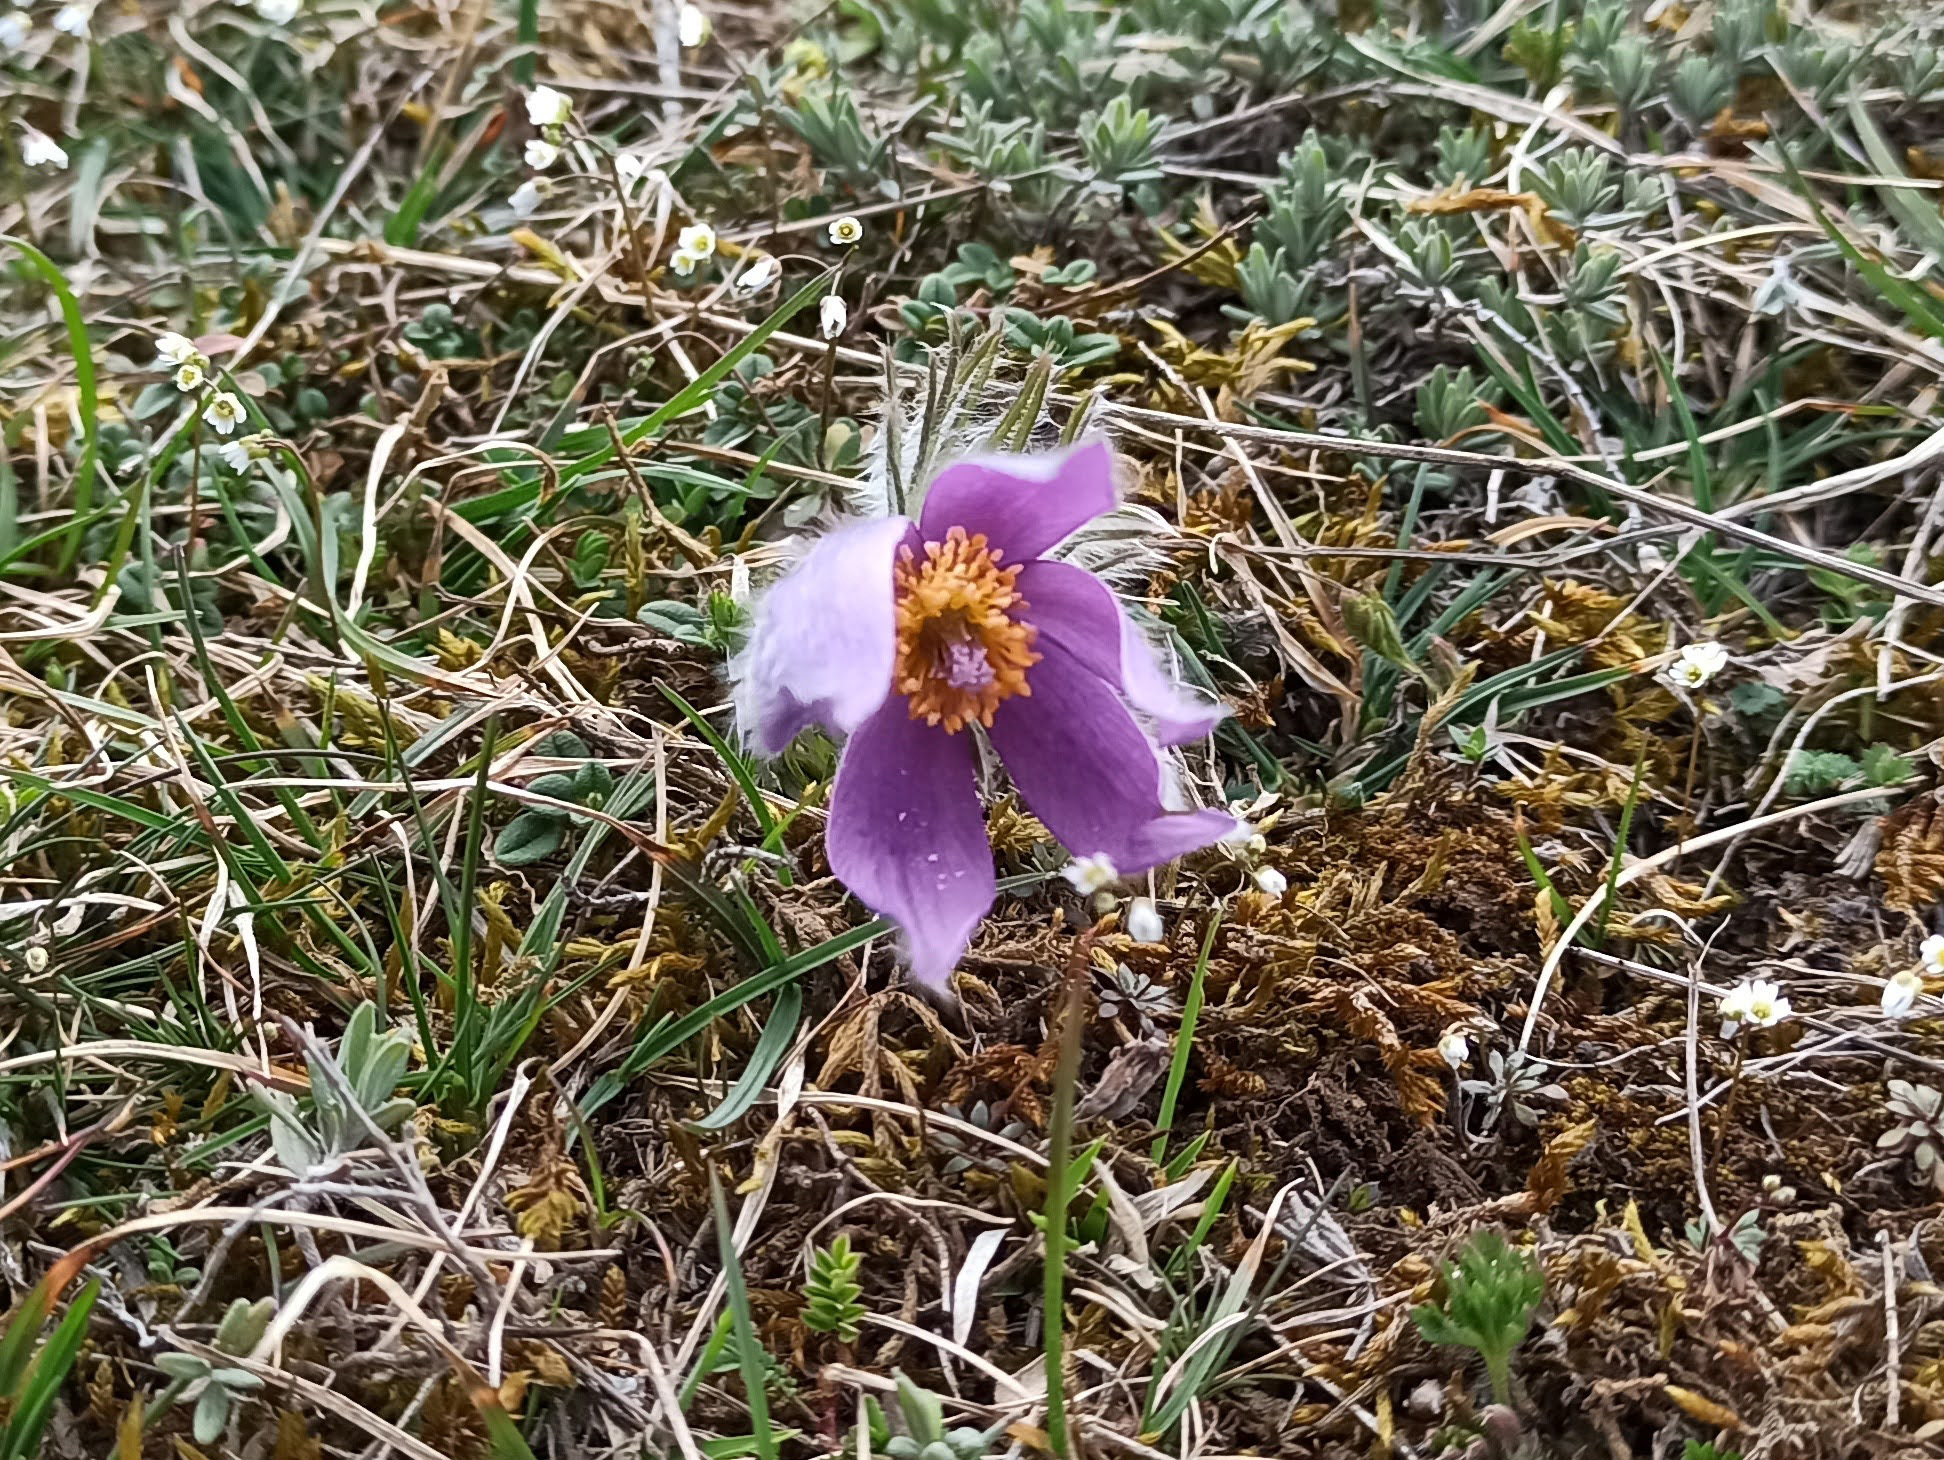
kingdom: Plantae
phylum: Tracheophyta
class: Magnoliopsida
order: Ranunculales
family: Ranunculaceae
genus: Pulsatilla
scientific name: Pulsatilla vulgaris
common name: Pasqueflower
